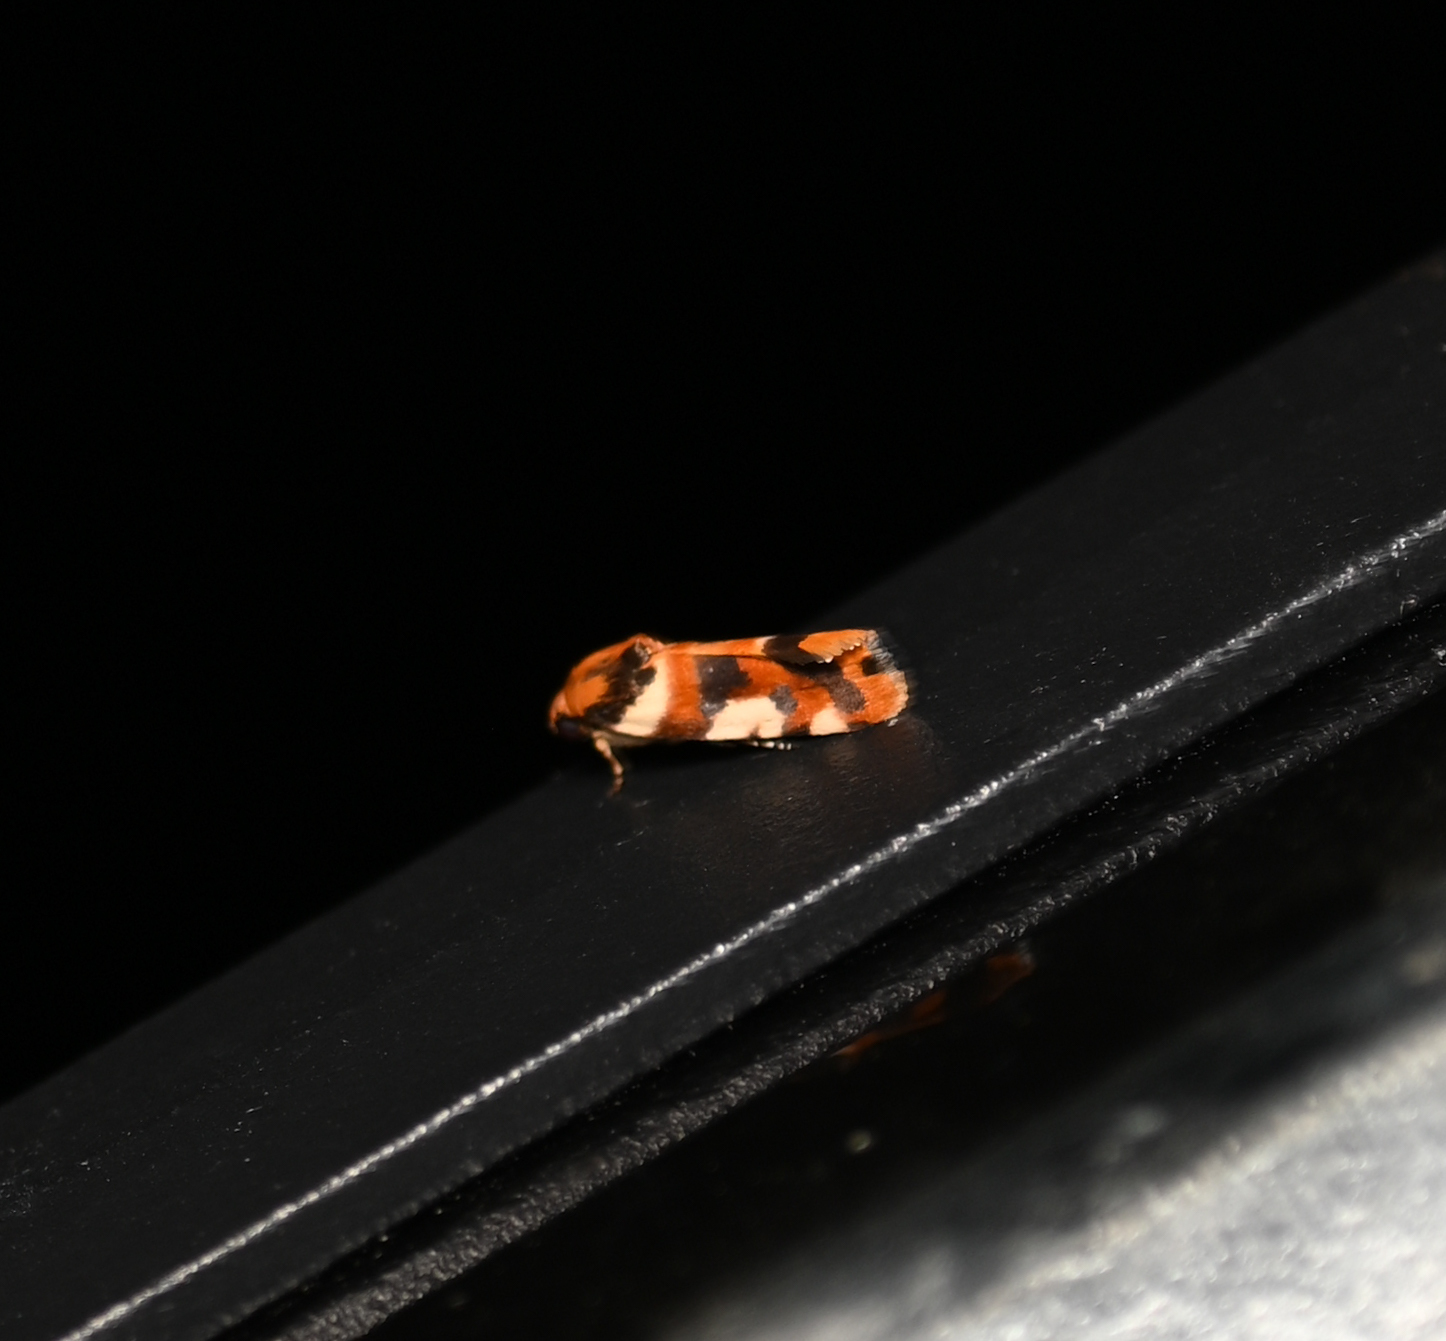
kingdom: Animalia
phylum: Arthropoda
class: Insecta
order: Lepidoptera
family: Noctuidae
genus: Acontia
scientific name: Acontia dama
